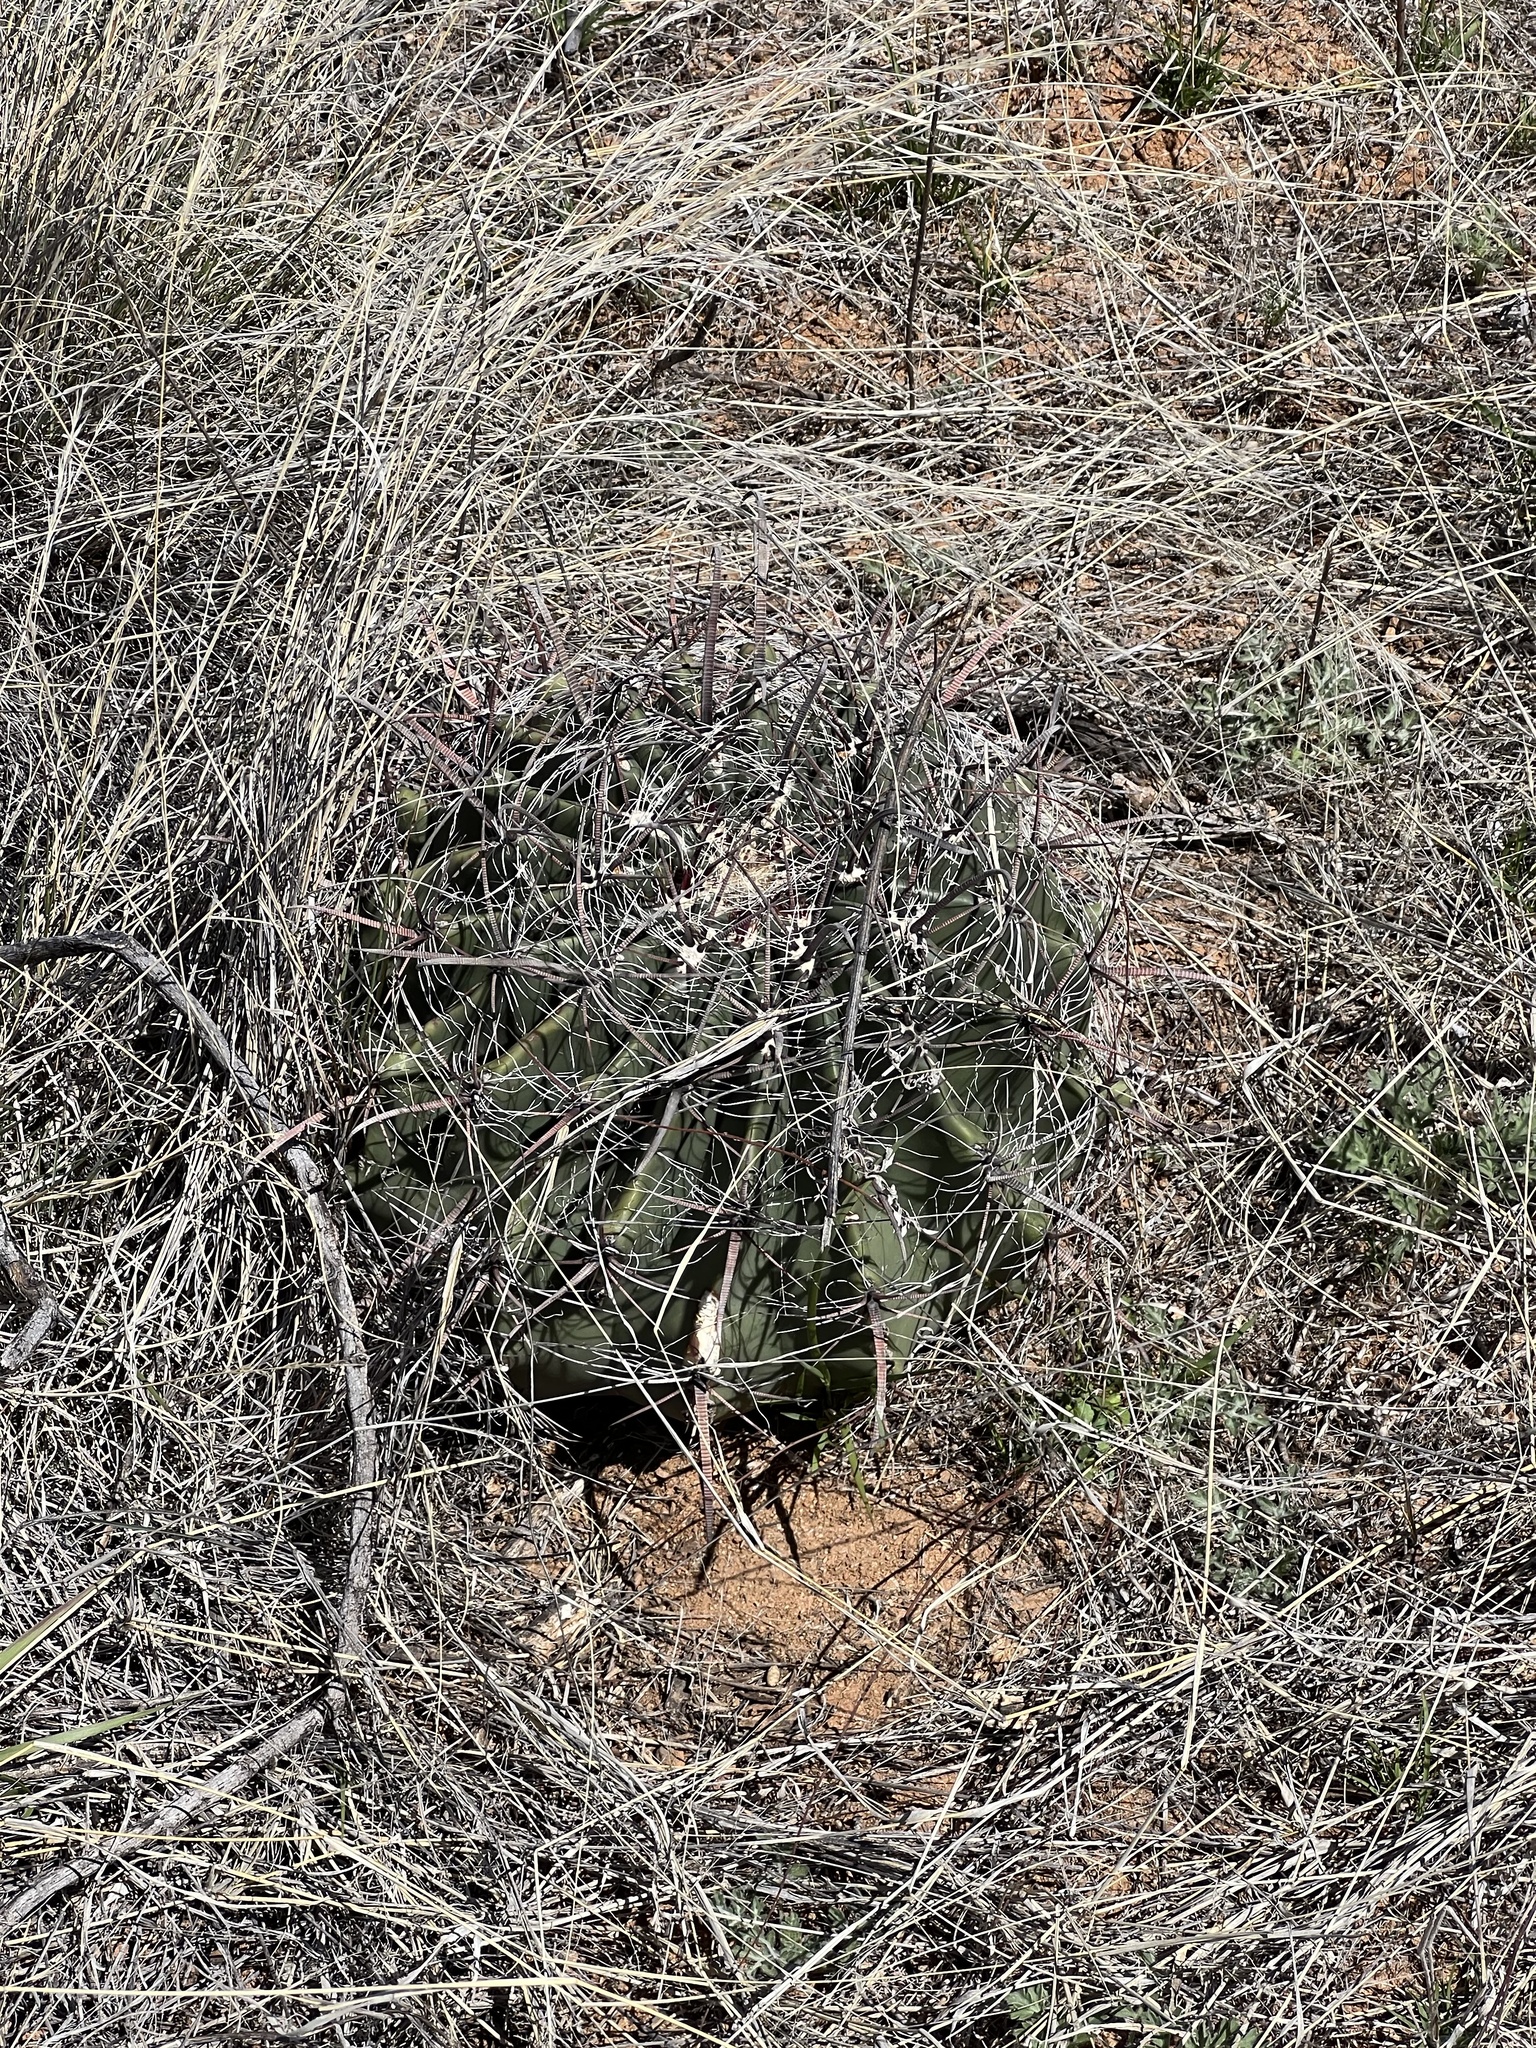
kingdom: Plantae
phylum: Tracheophyta
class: Magnoliopsida
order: Caryophyllales
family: Cactaceae
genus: Ferocactus
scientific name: Ferocactus wislizeni
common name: Candy barrel cactus
